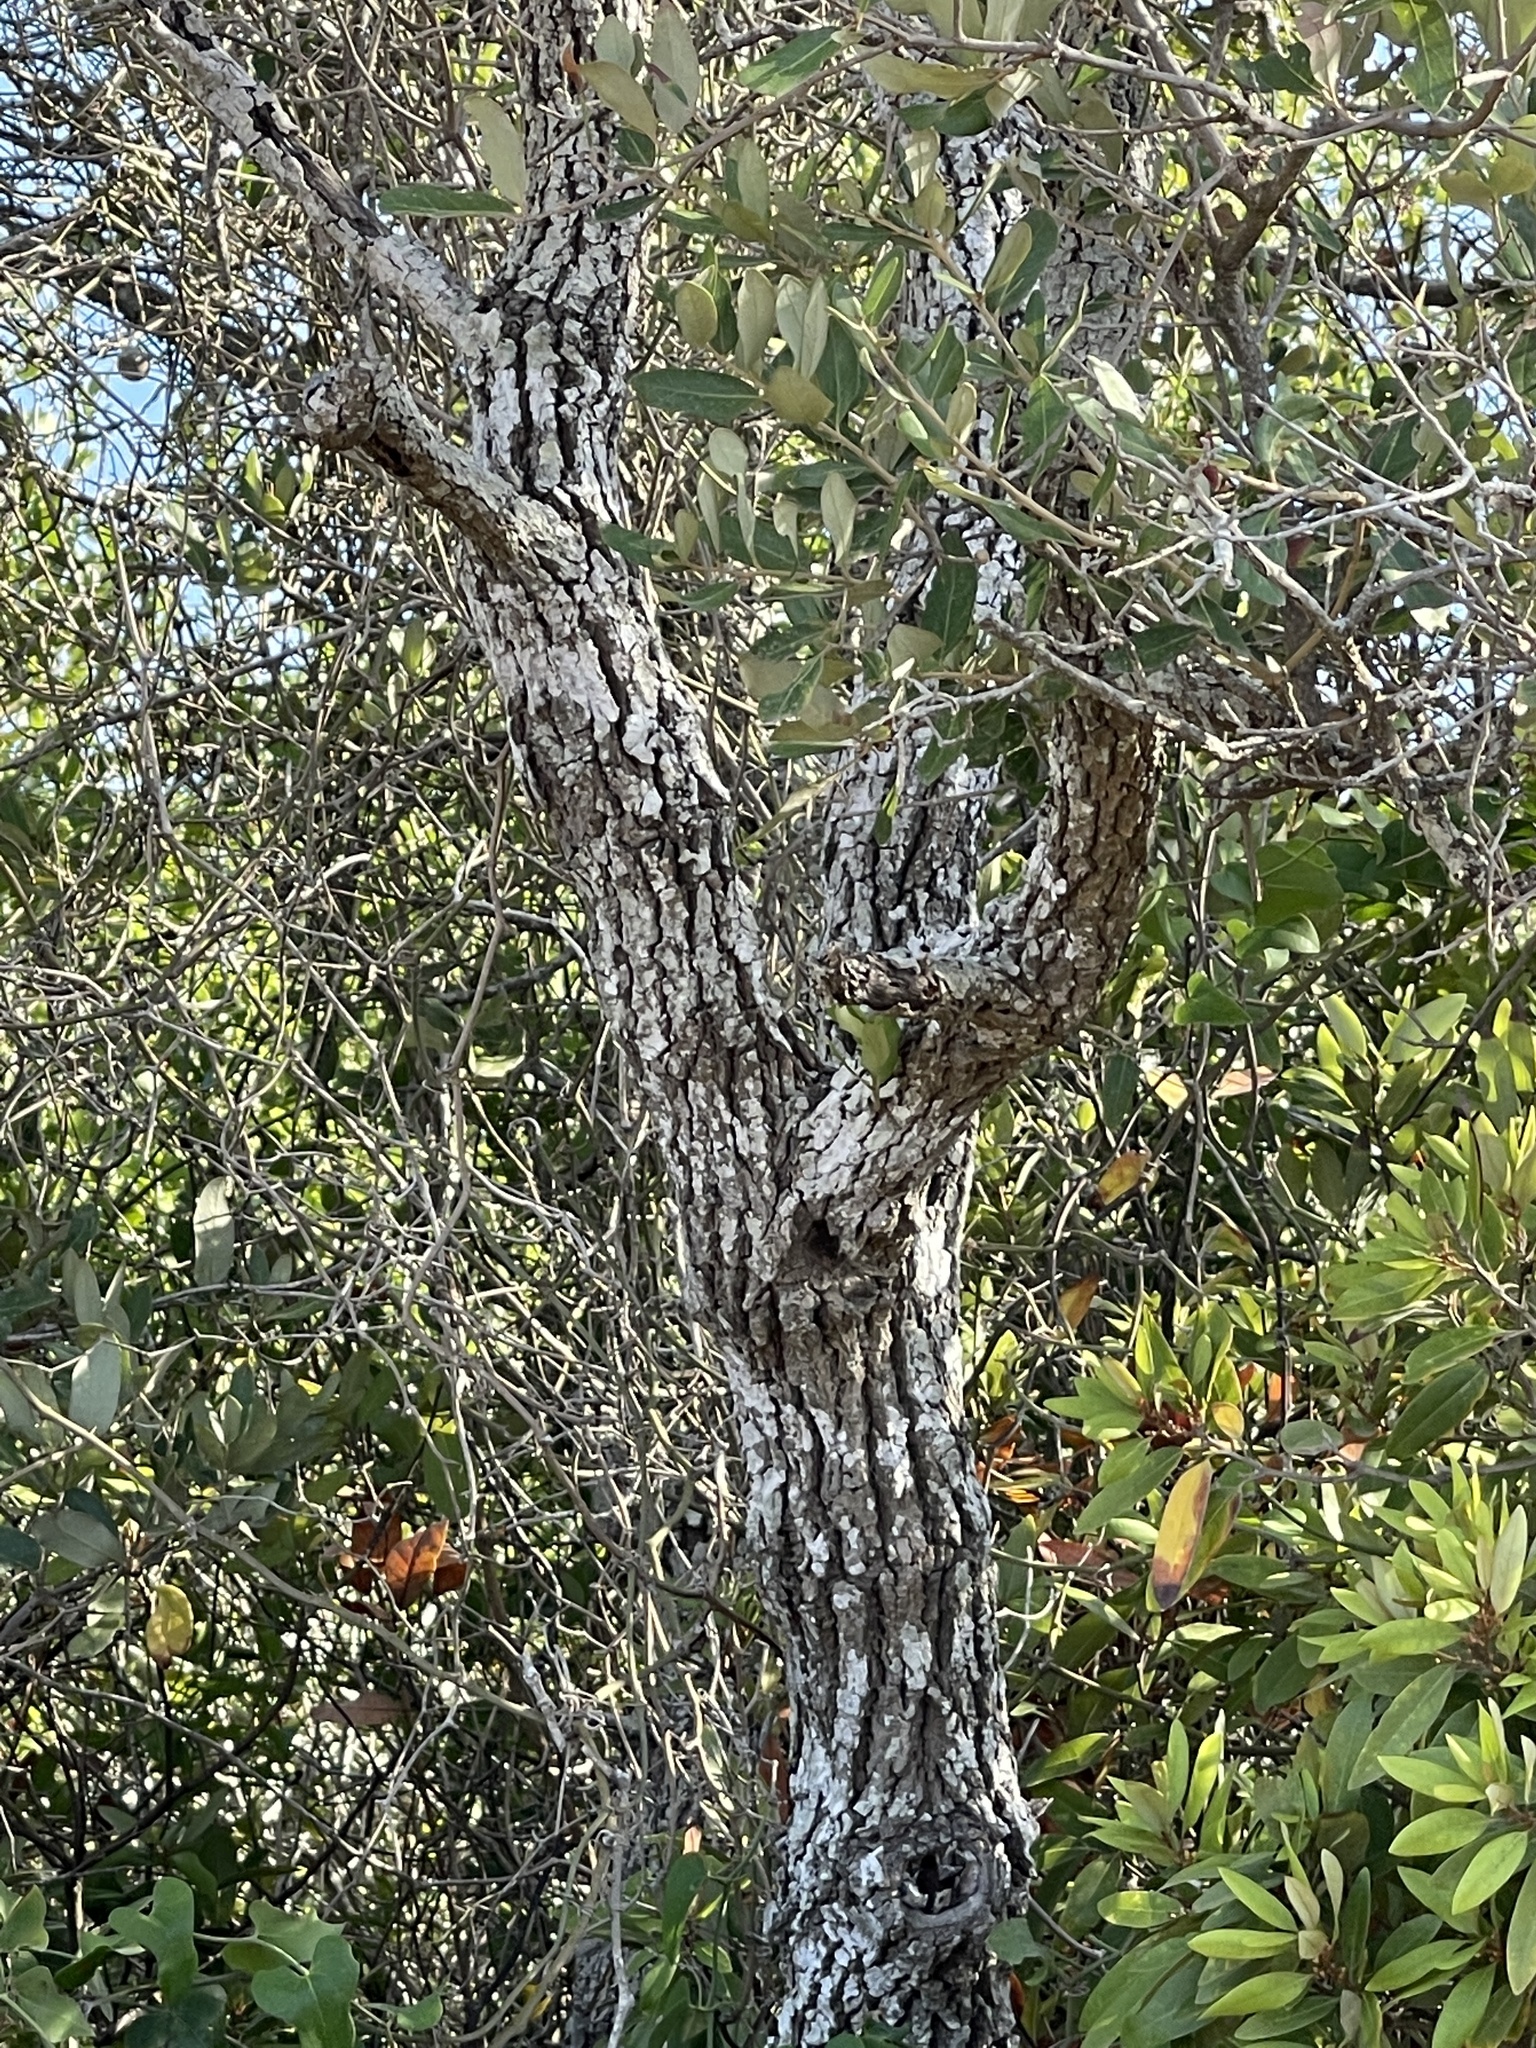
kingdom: Plantae
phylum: Tracheophyta
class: Magnoliopsida
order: Fagales
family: Fagaceae
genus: Quercus
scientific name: Quercus virginiana
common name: Southern live oak
